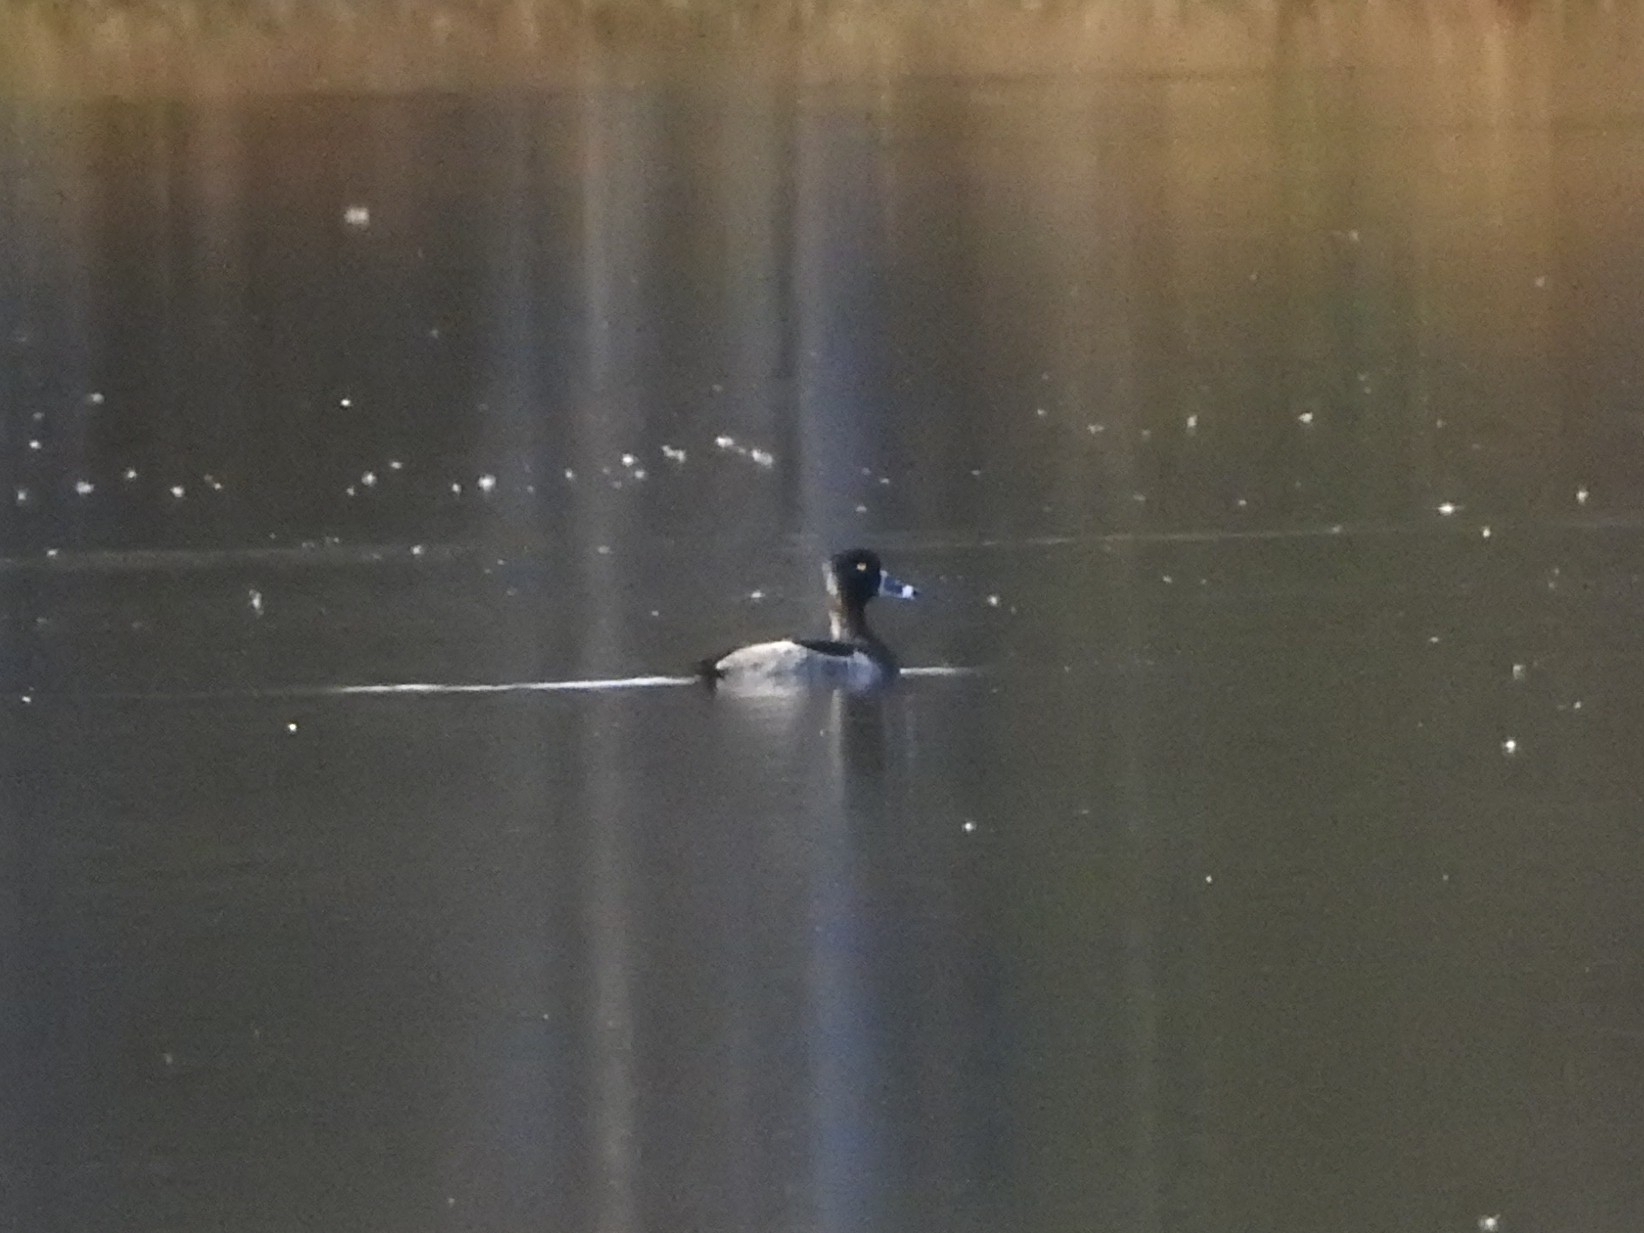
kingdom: Animalia
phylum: Chordata
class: Aves
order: Anseriformes
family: Anatidae
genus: Aythya
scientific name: Aythya collaris
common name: Ring-necked duck
